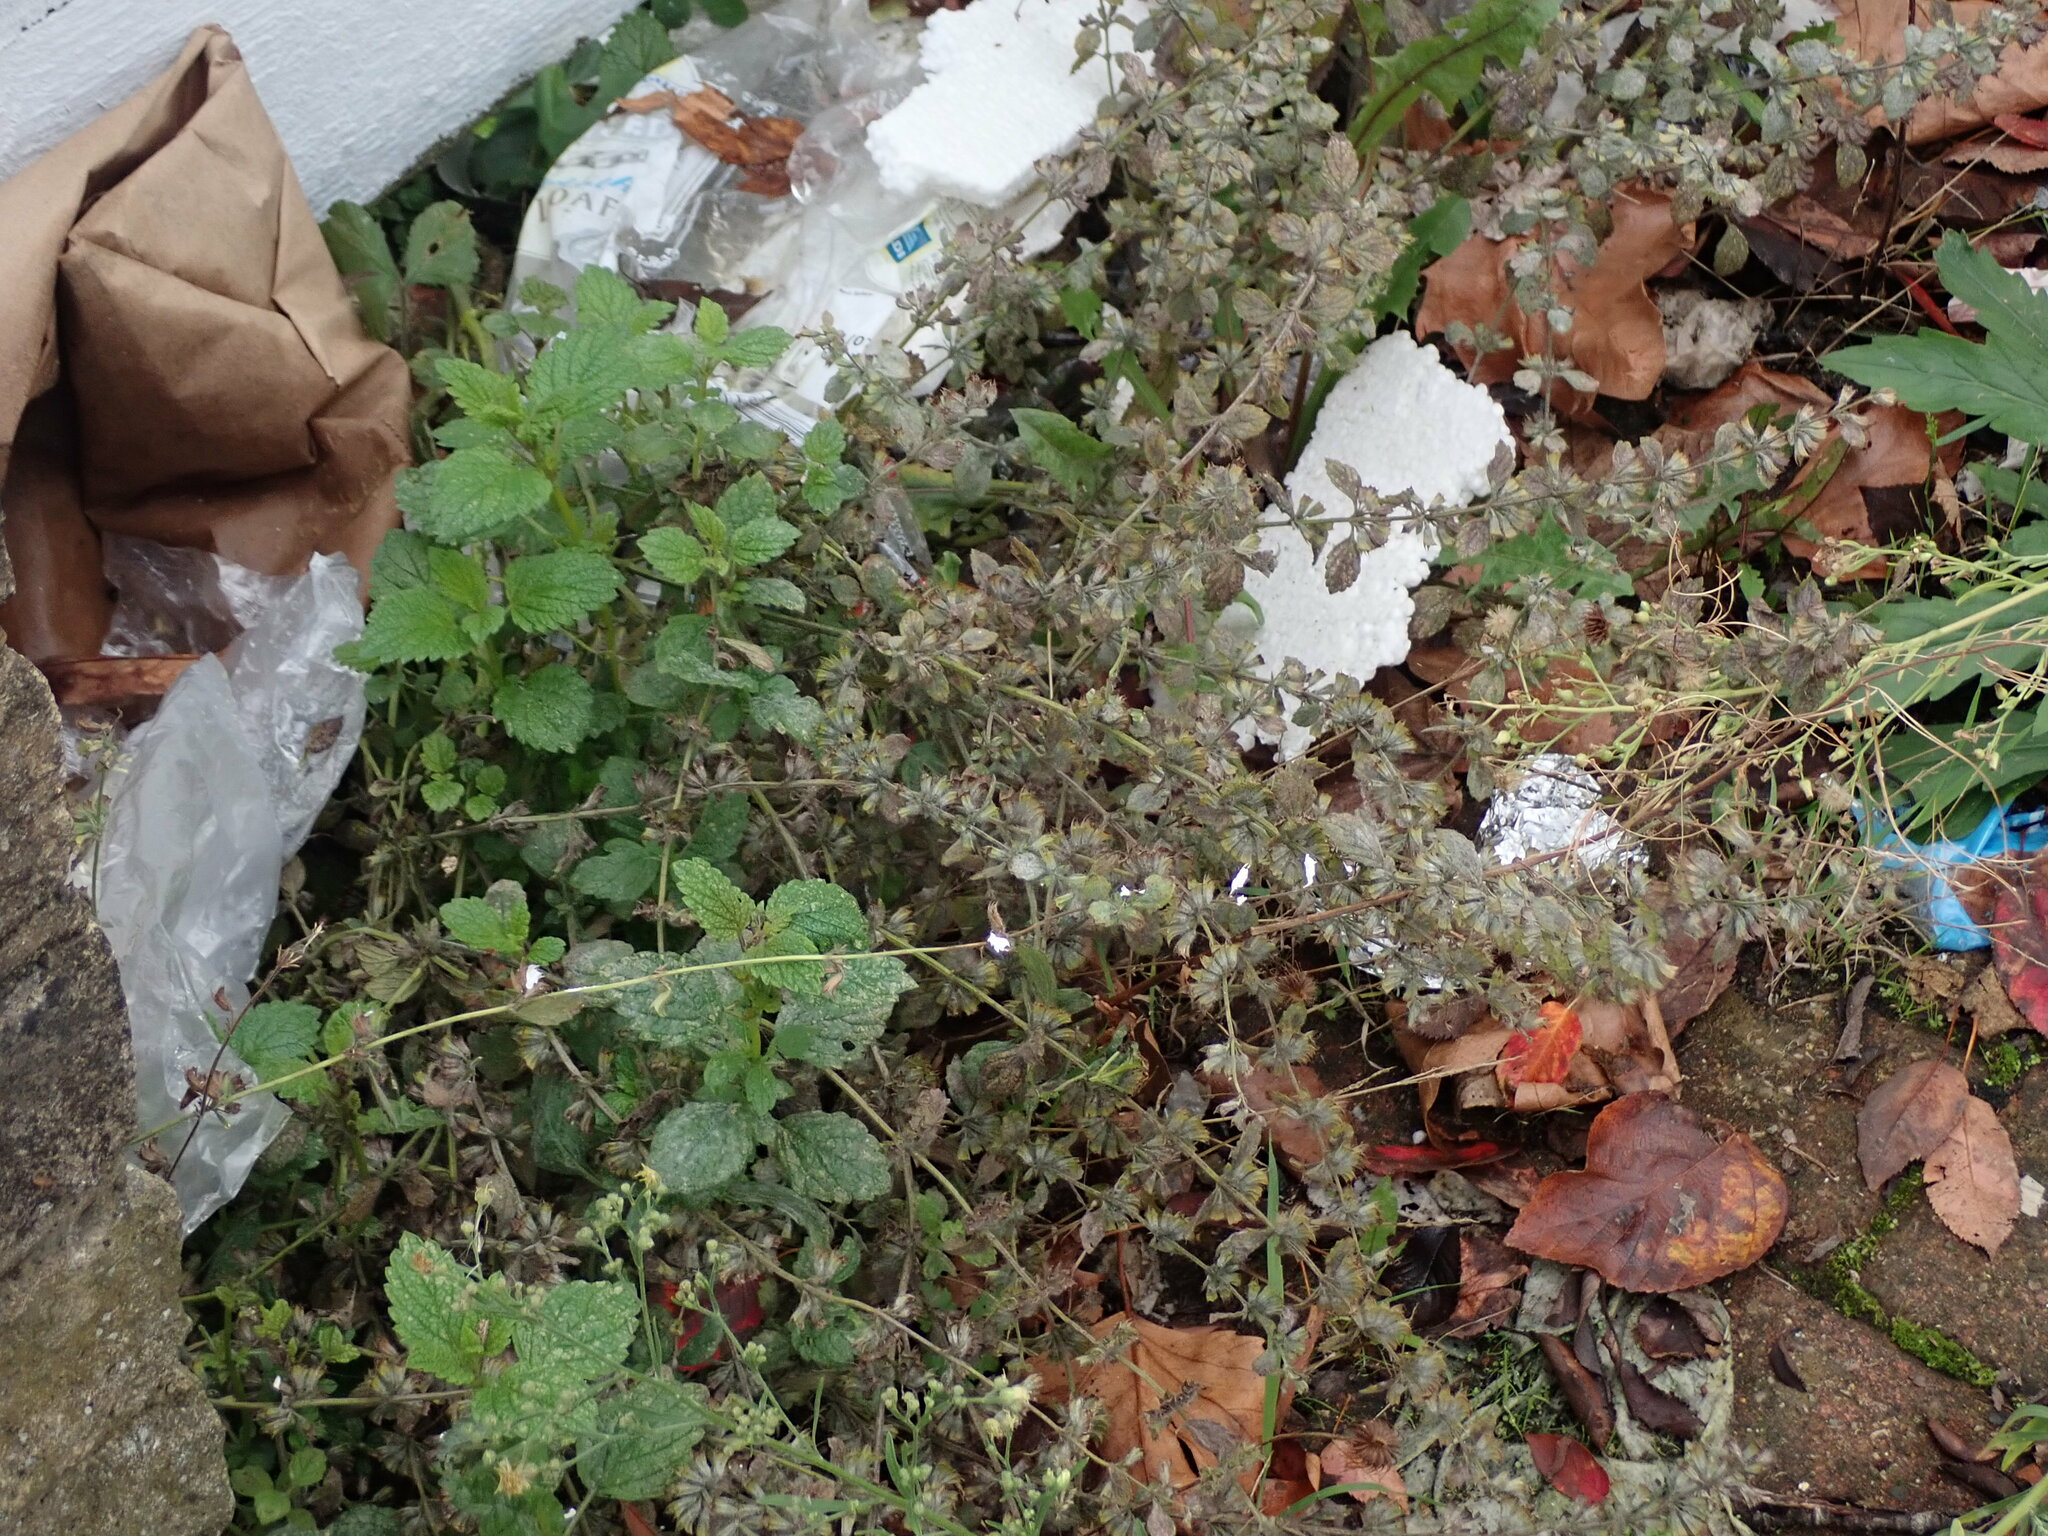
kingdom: Plantae
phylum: Tracheophyta
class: Magnoliopsida
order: Lamiales
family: Lamiaceae
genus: Melissa
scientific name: Melissa officinalis
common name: Balm
